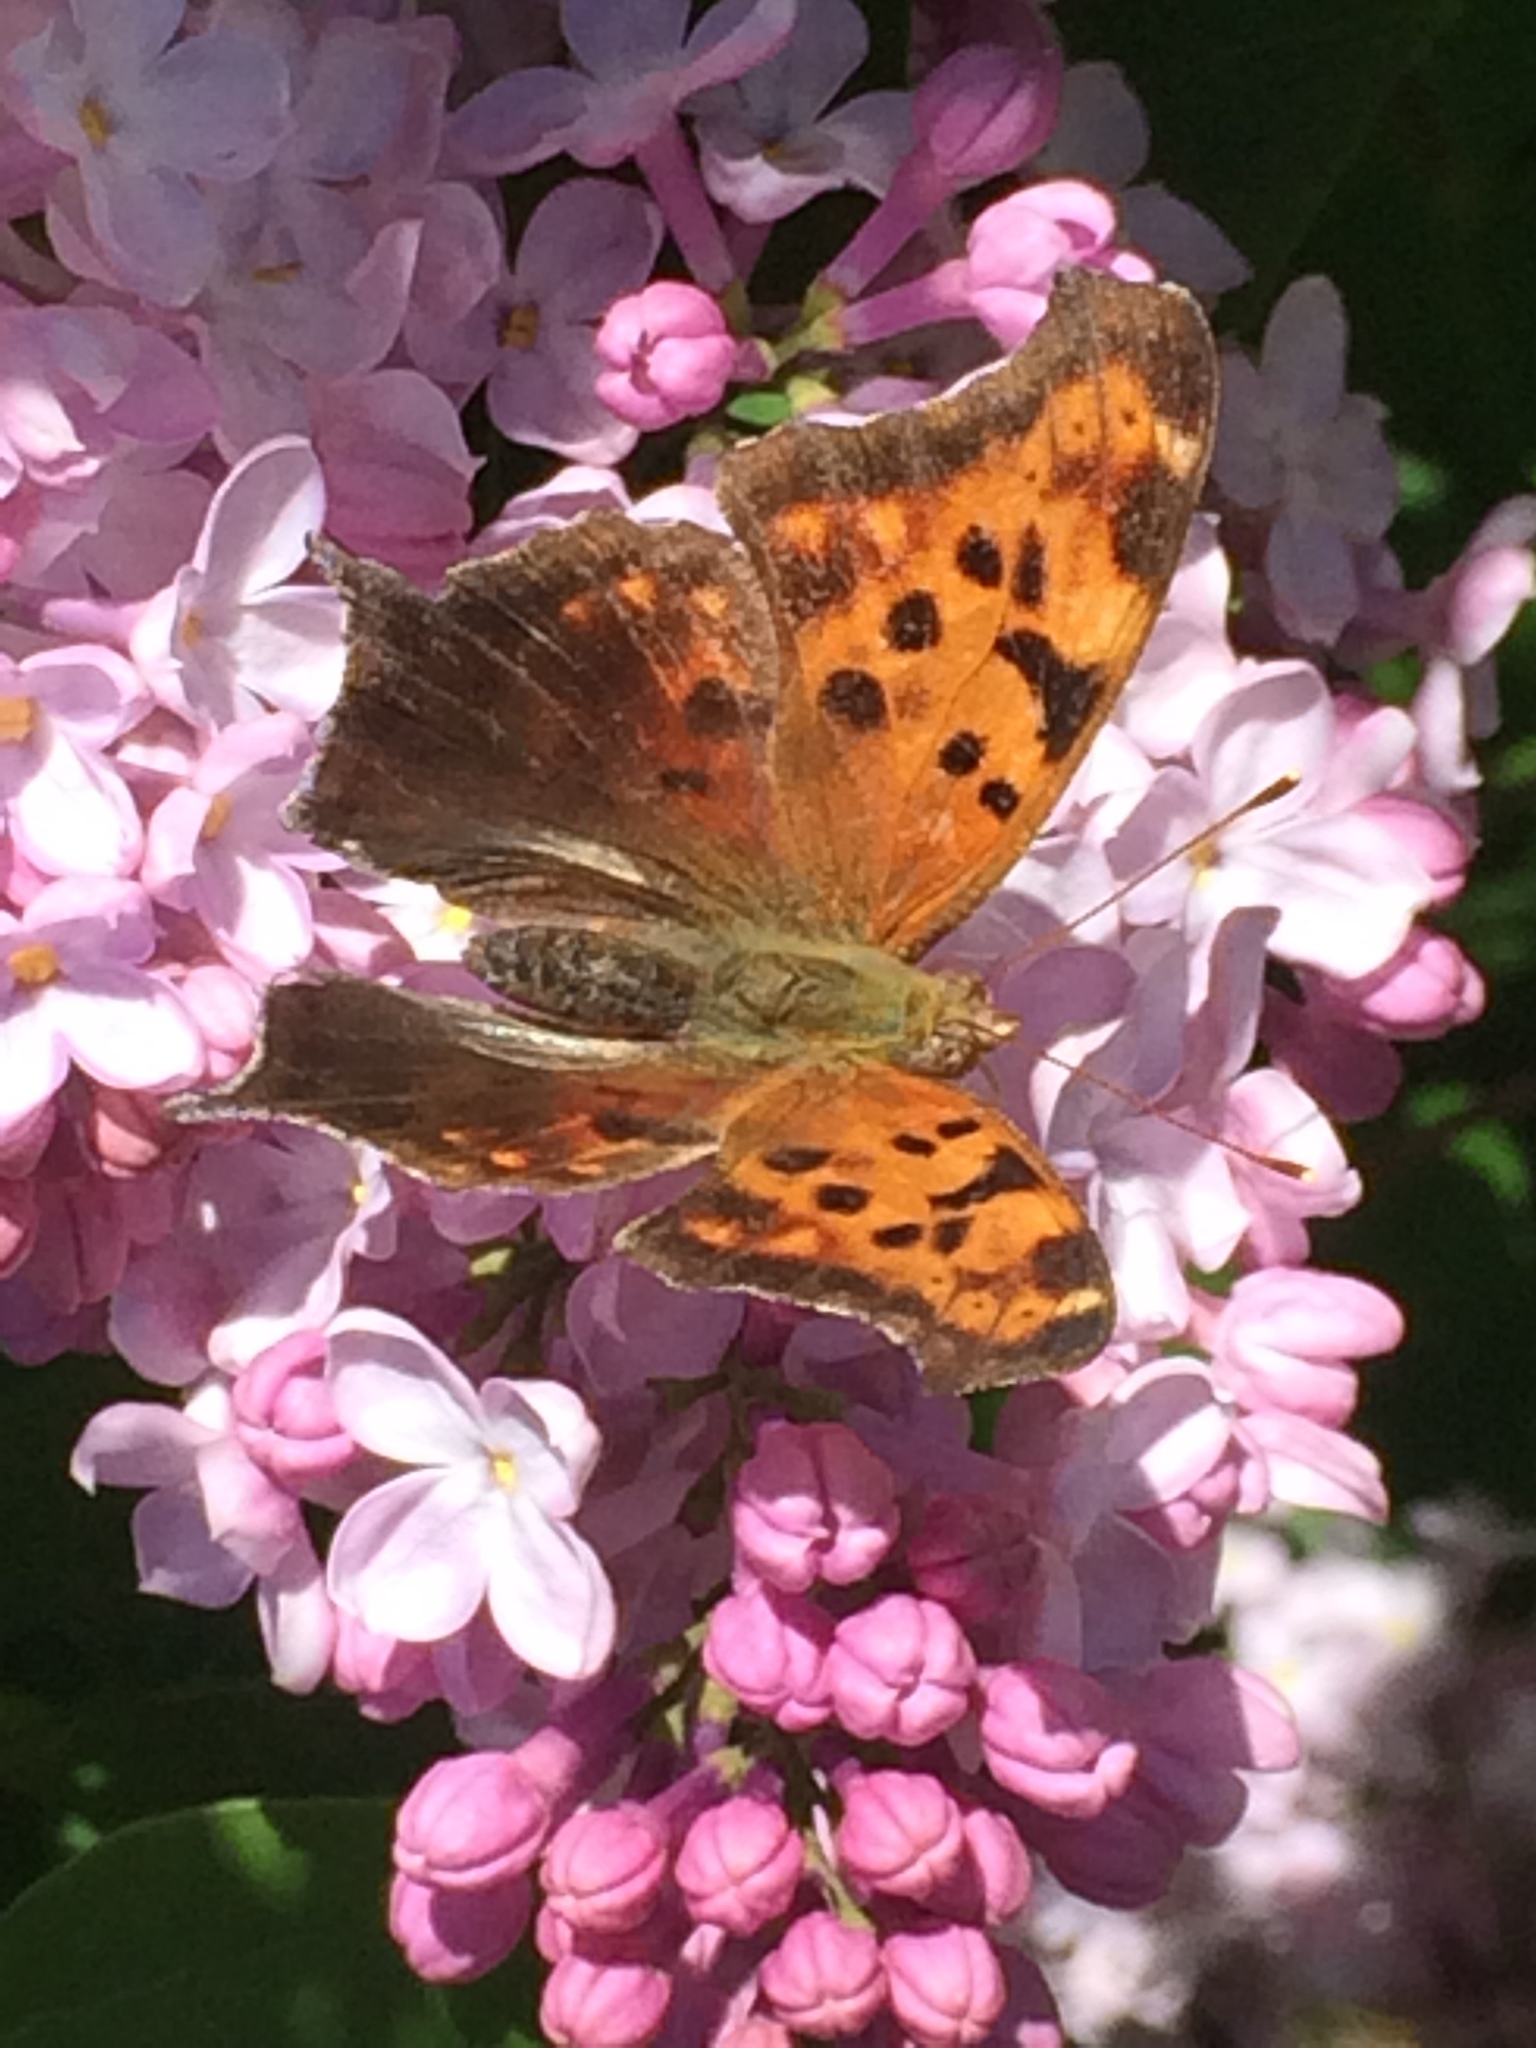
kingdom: Animalia
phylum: Arthropoda
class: Insecta
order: Lepidoptera
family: Nymphalidae
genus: Polygonia
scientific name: Polygonia interrogationis
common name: Question mark
